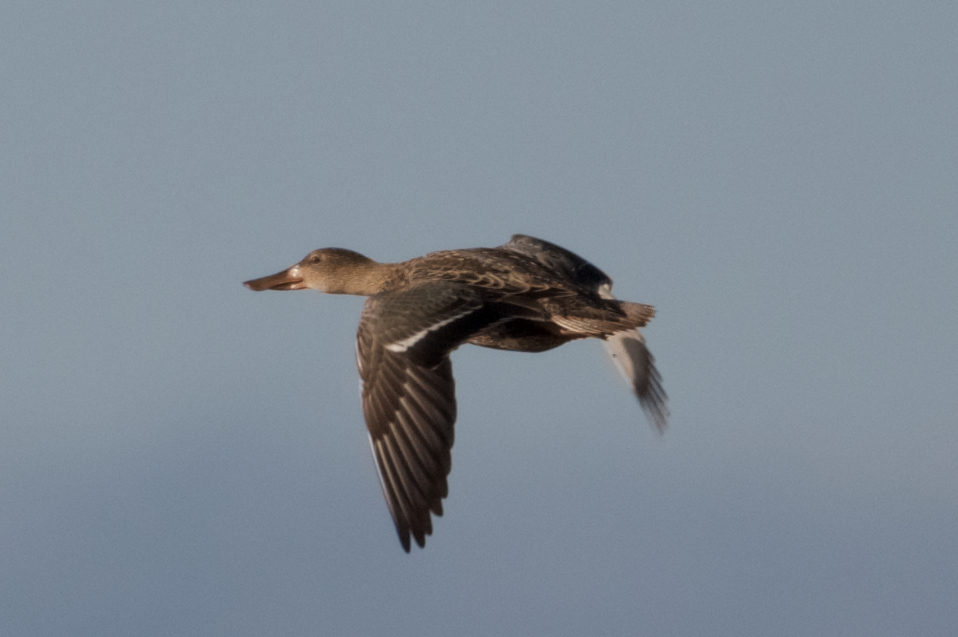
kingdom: Animalia
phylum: Chordata
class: Aves
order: Anseriformes
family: Anatidae
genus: Spatula
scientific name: Spatula clypeata
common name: Northern shoveler
